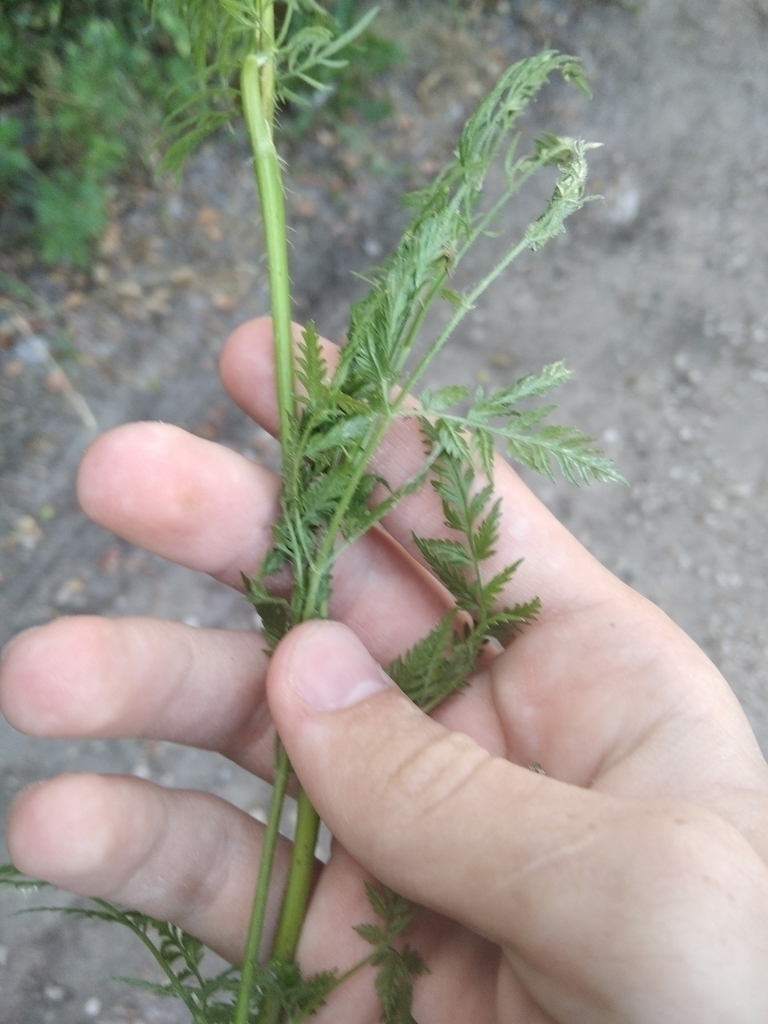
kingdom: Plantae
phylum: Tracheophyta
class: Magnoliopsida
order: Apiales
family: Apiaceae
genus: Chaerophyllum
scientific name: Chaerophyllum prescottii
